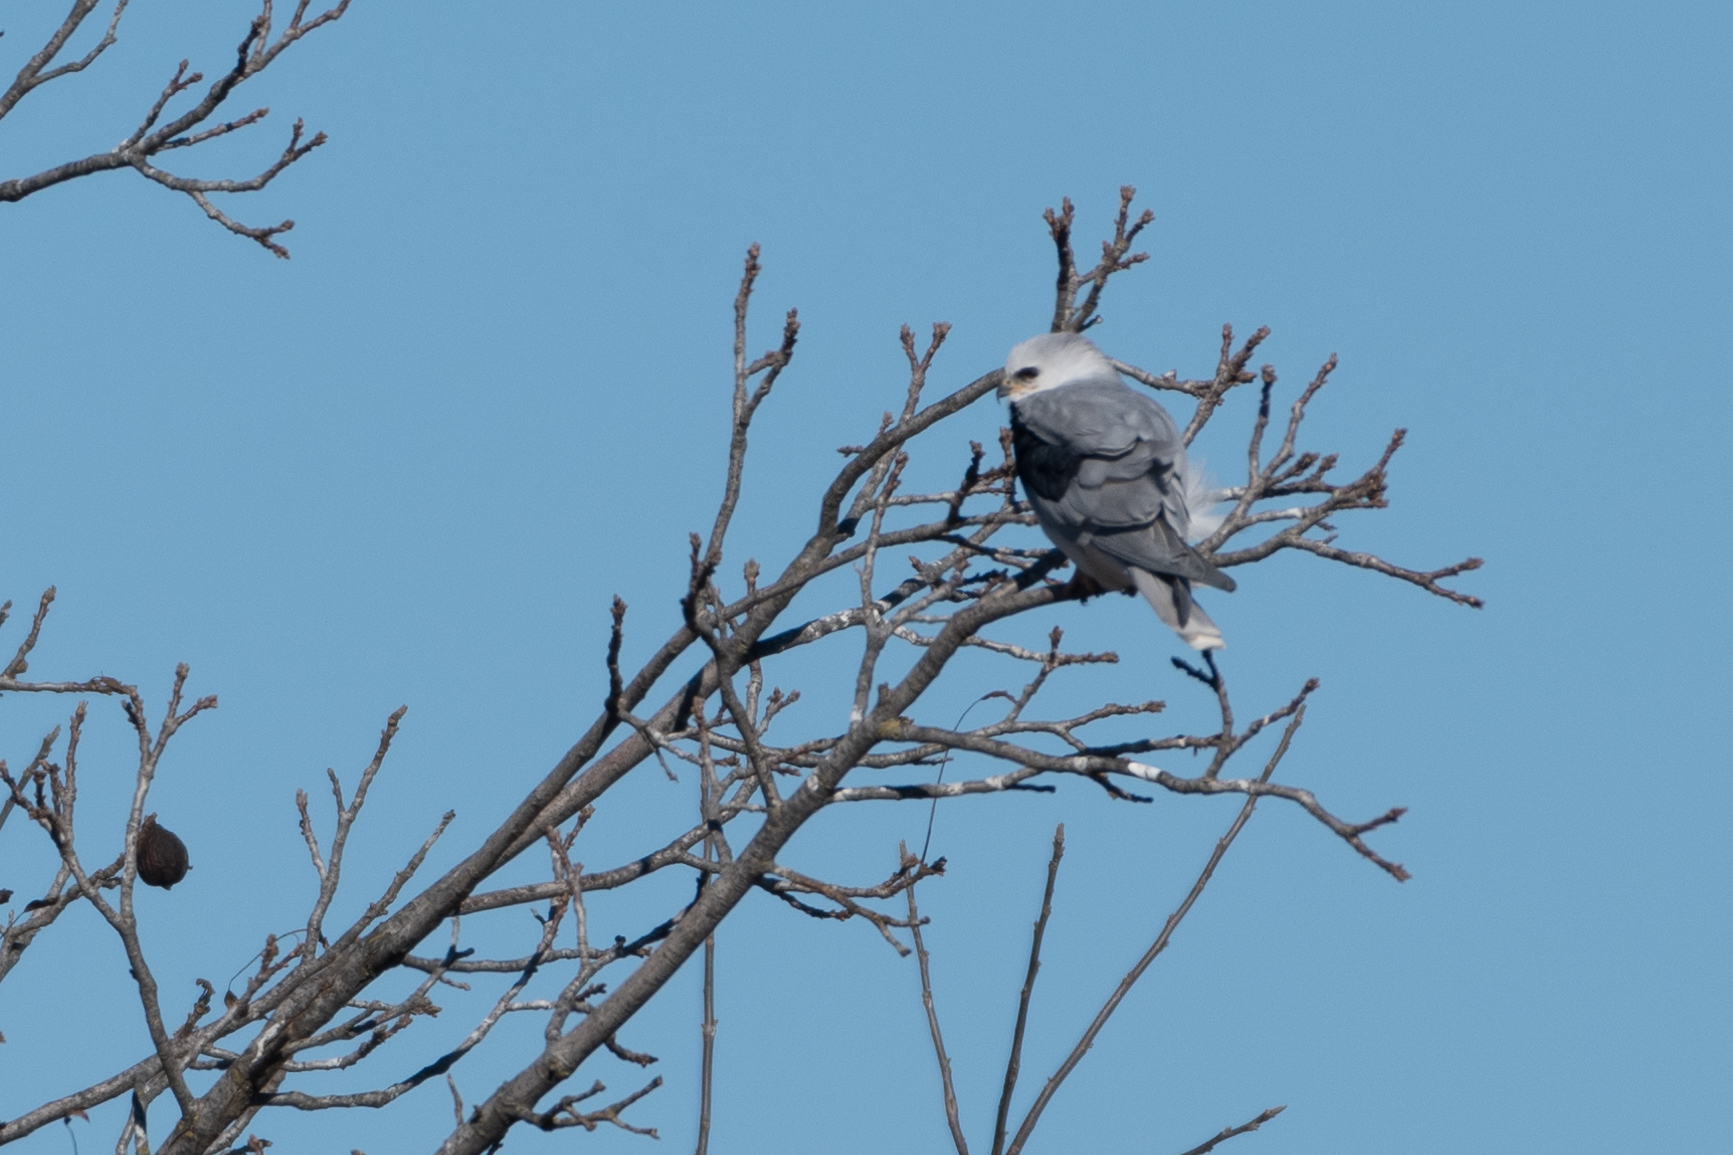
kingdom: Animalia
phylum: Chordata
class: Aves
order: Accipitriformes
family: Accipitridae
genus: Elanus
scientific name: Elanus leucurus
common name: White-tailed kite
